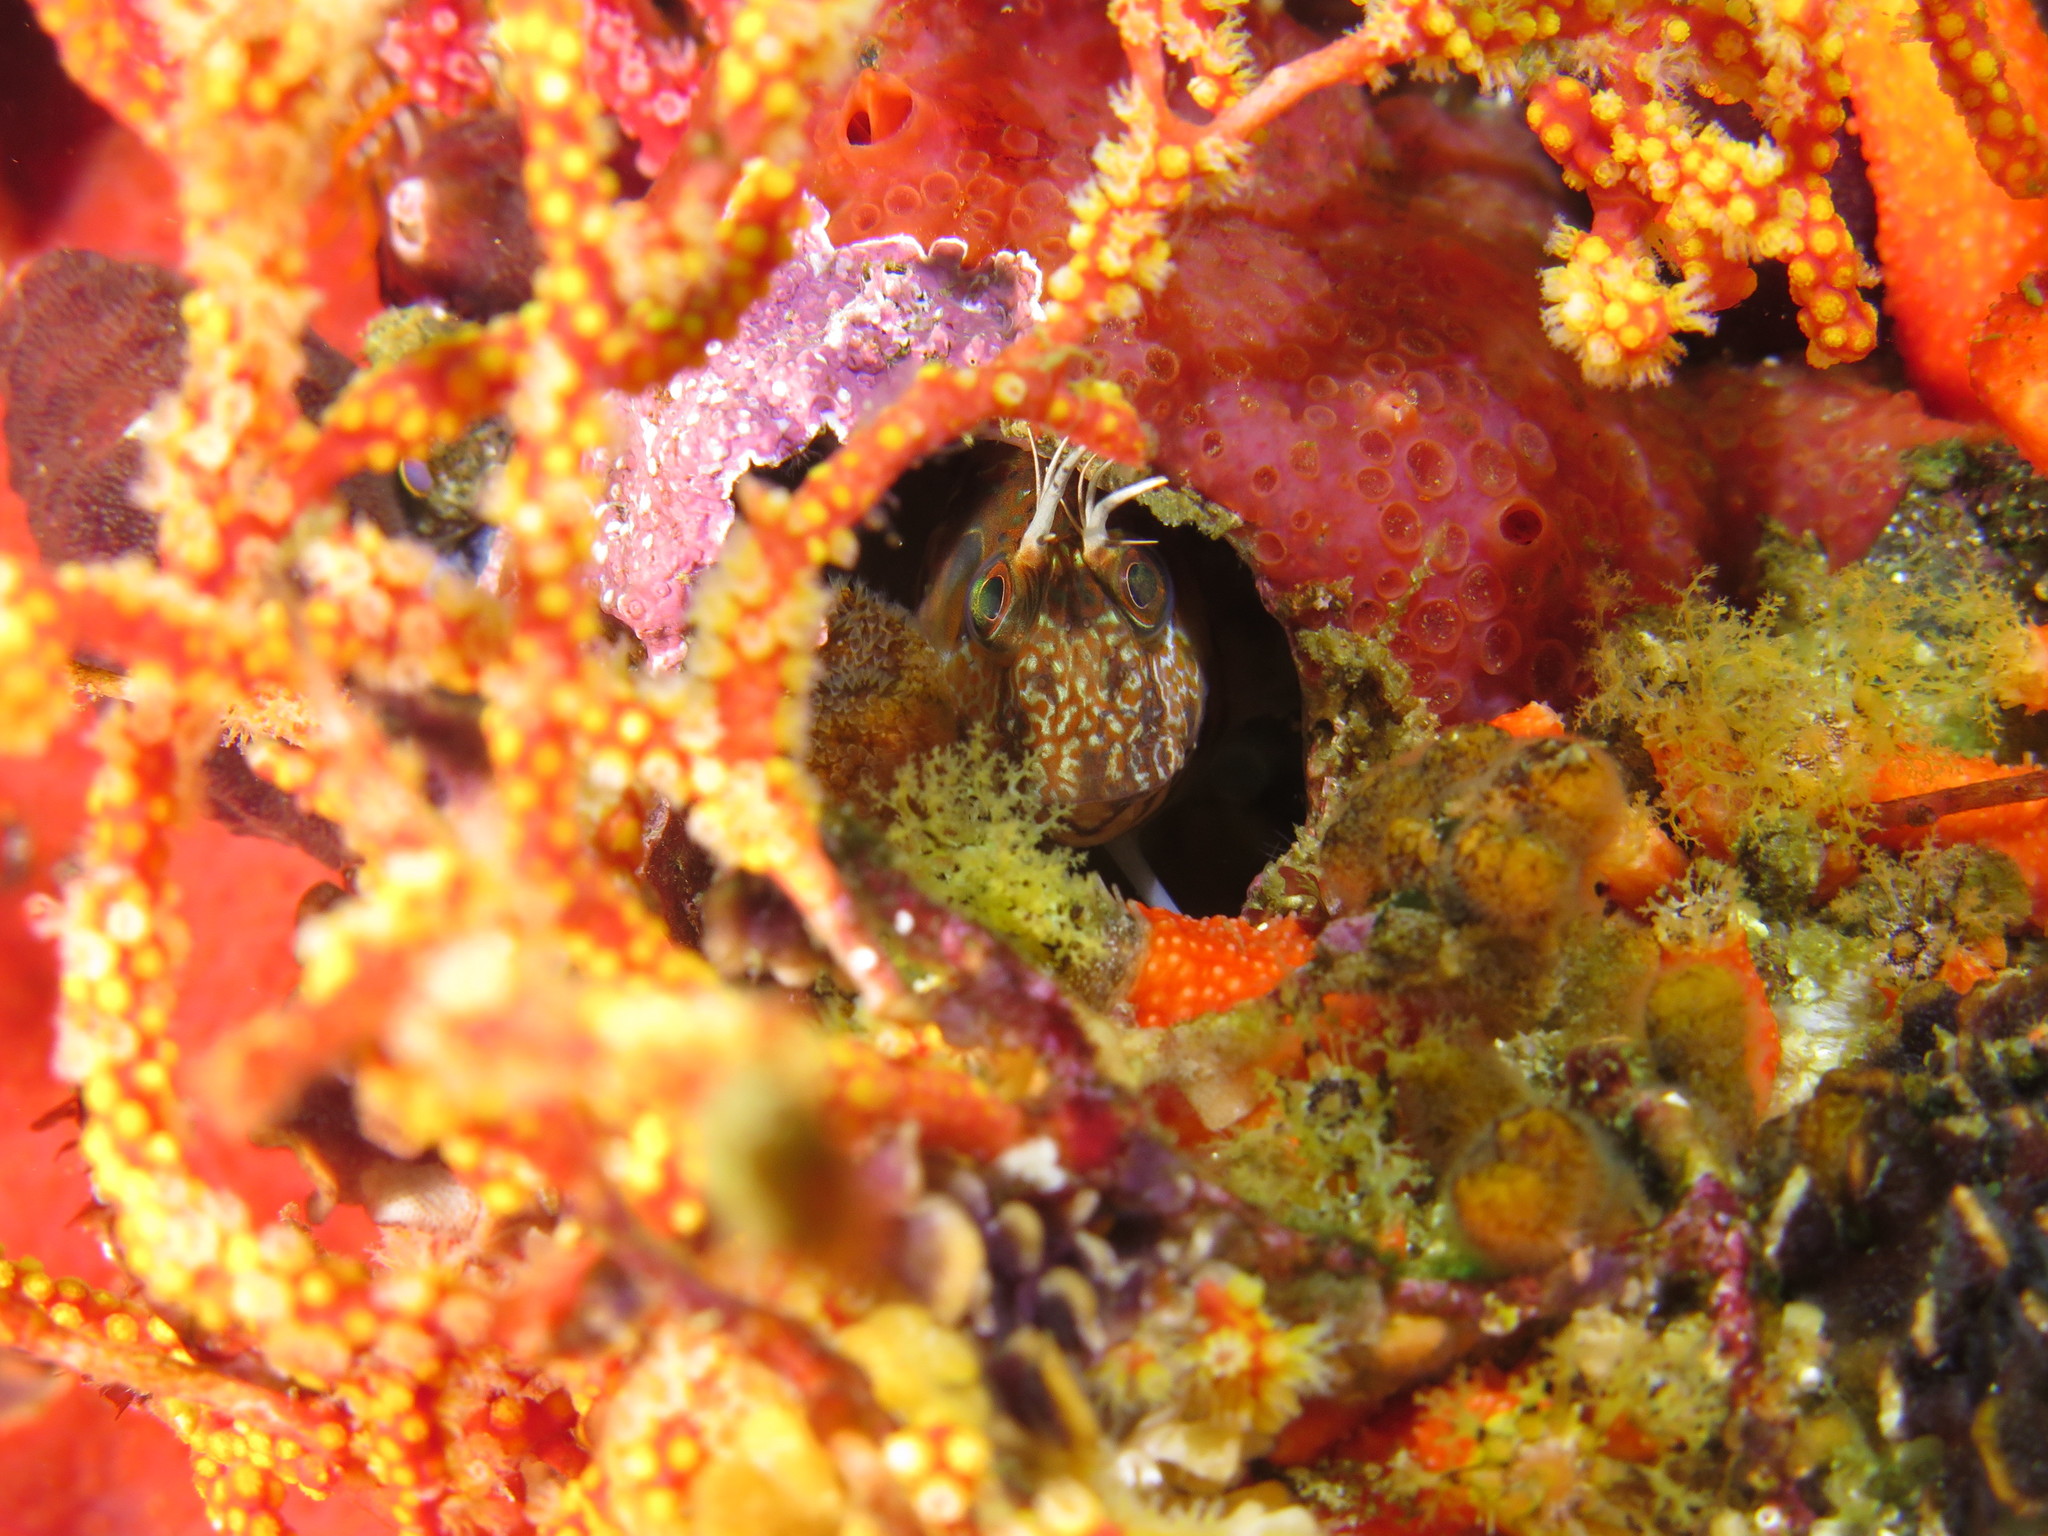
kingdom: Animalia
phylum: Chordata
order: Perciformes
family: Blenniidae
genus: Chalaroderma
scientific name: Chalaroderma ocellata
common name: Two-eyed blenny
